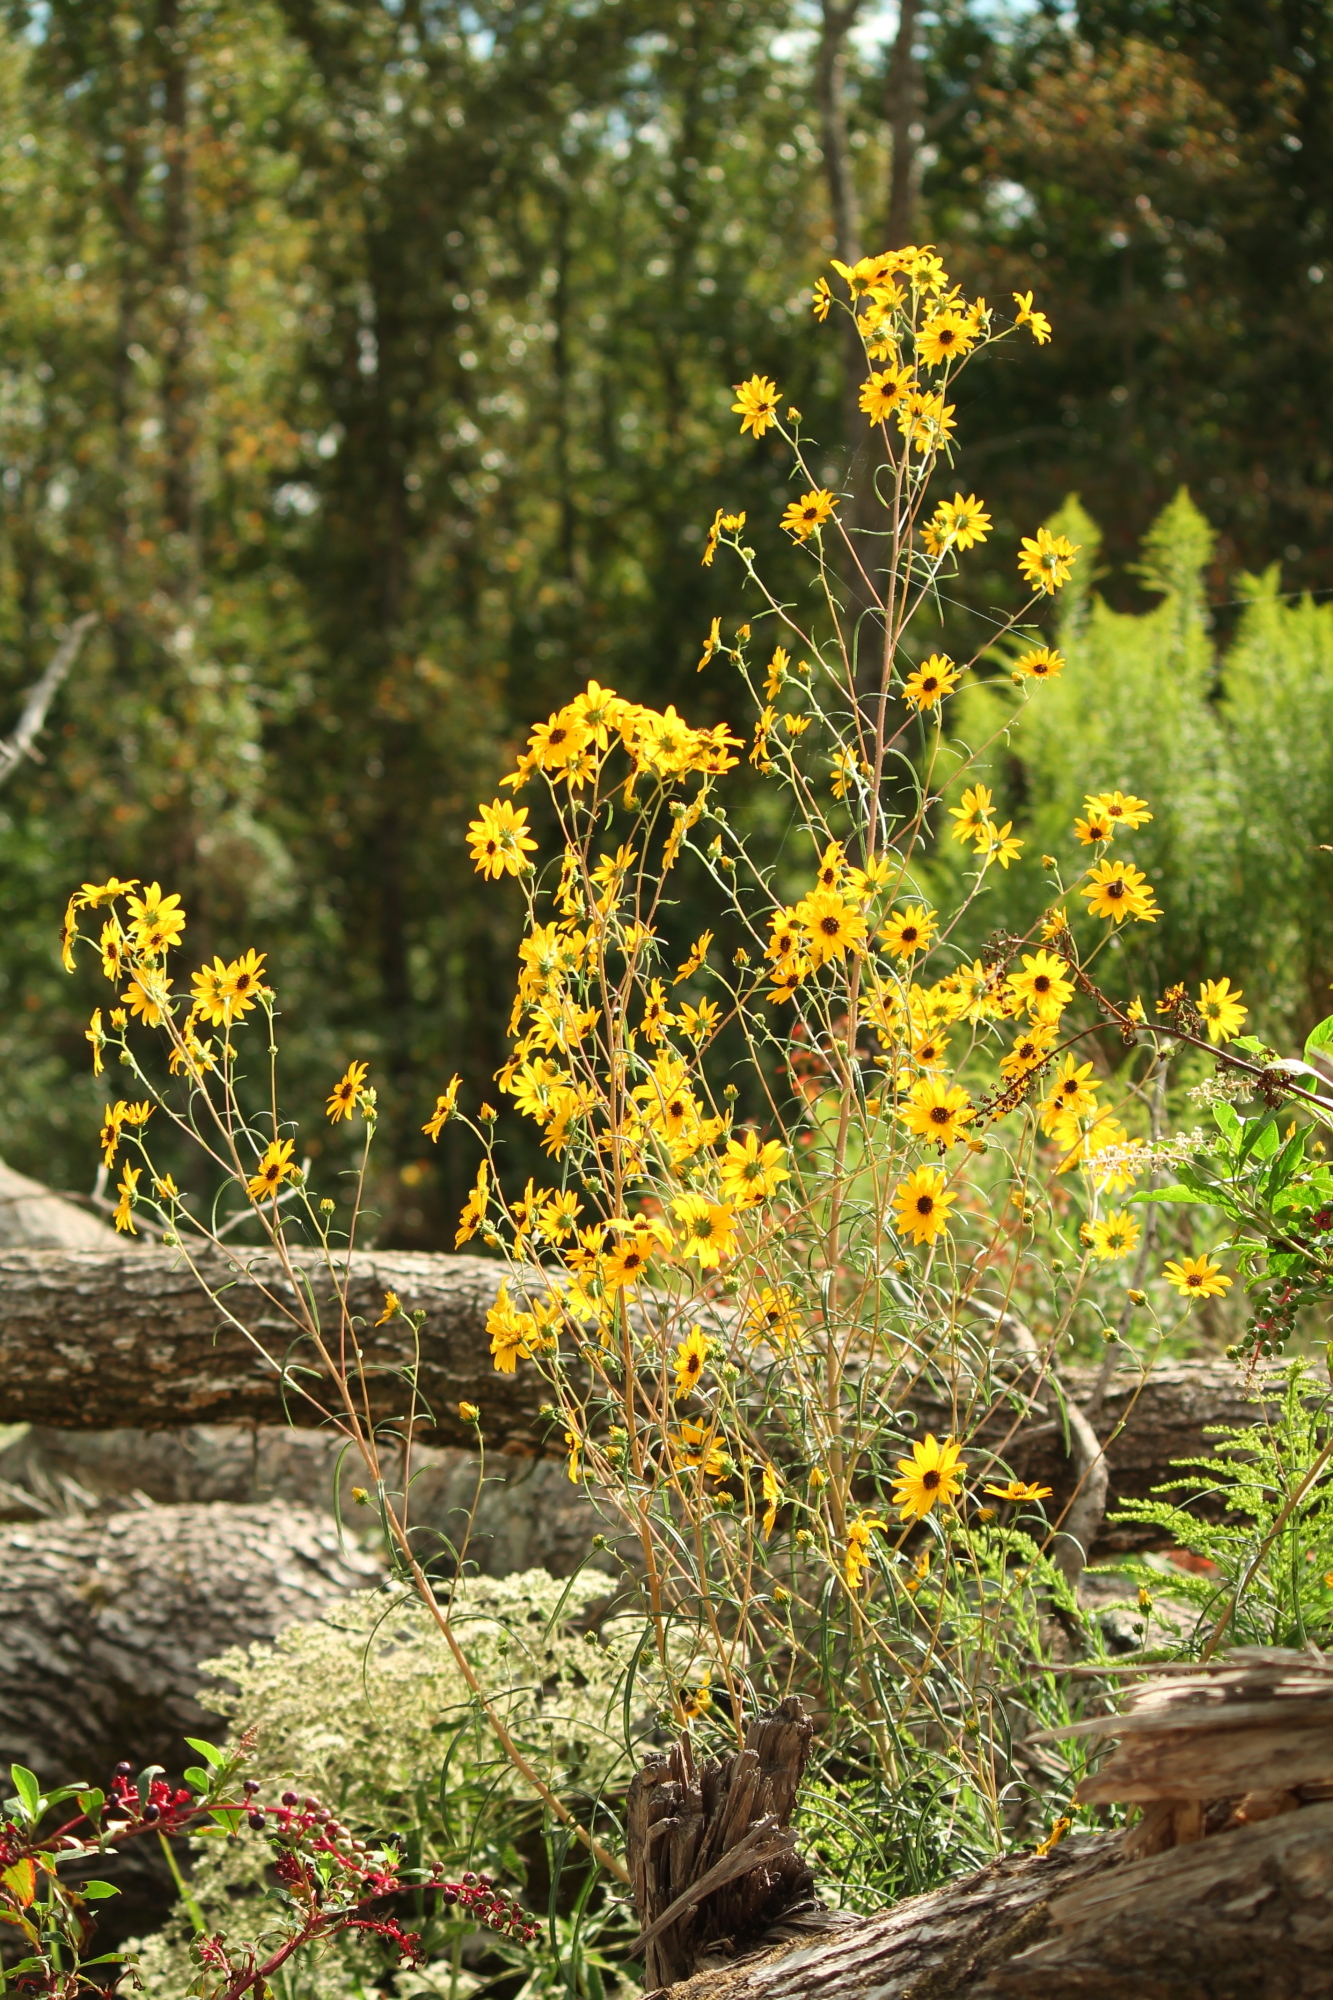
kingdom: Plantae
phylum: Tracheophyta
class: Magnoliopsida
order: Asterales
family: Asteraceae
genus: Helianthus
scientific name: Helianthus angustifolius
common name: Swamp sunflower
